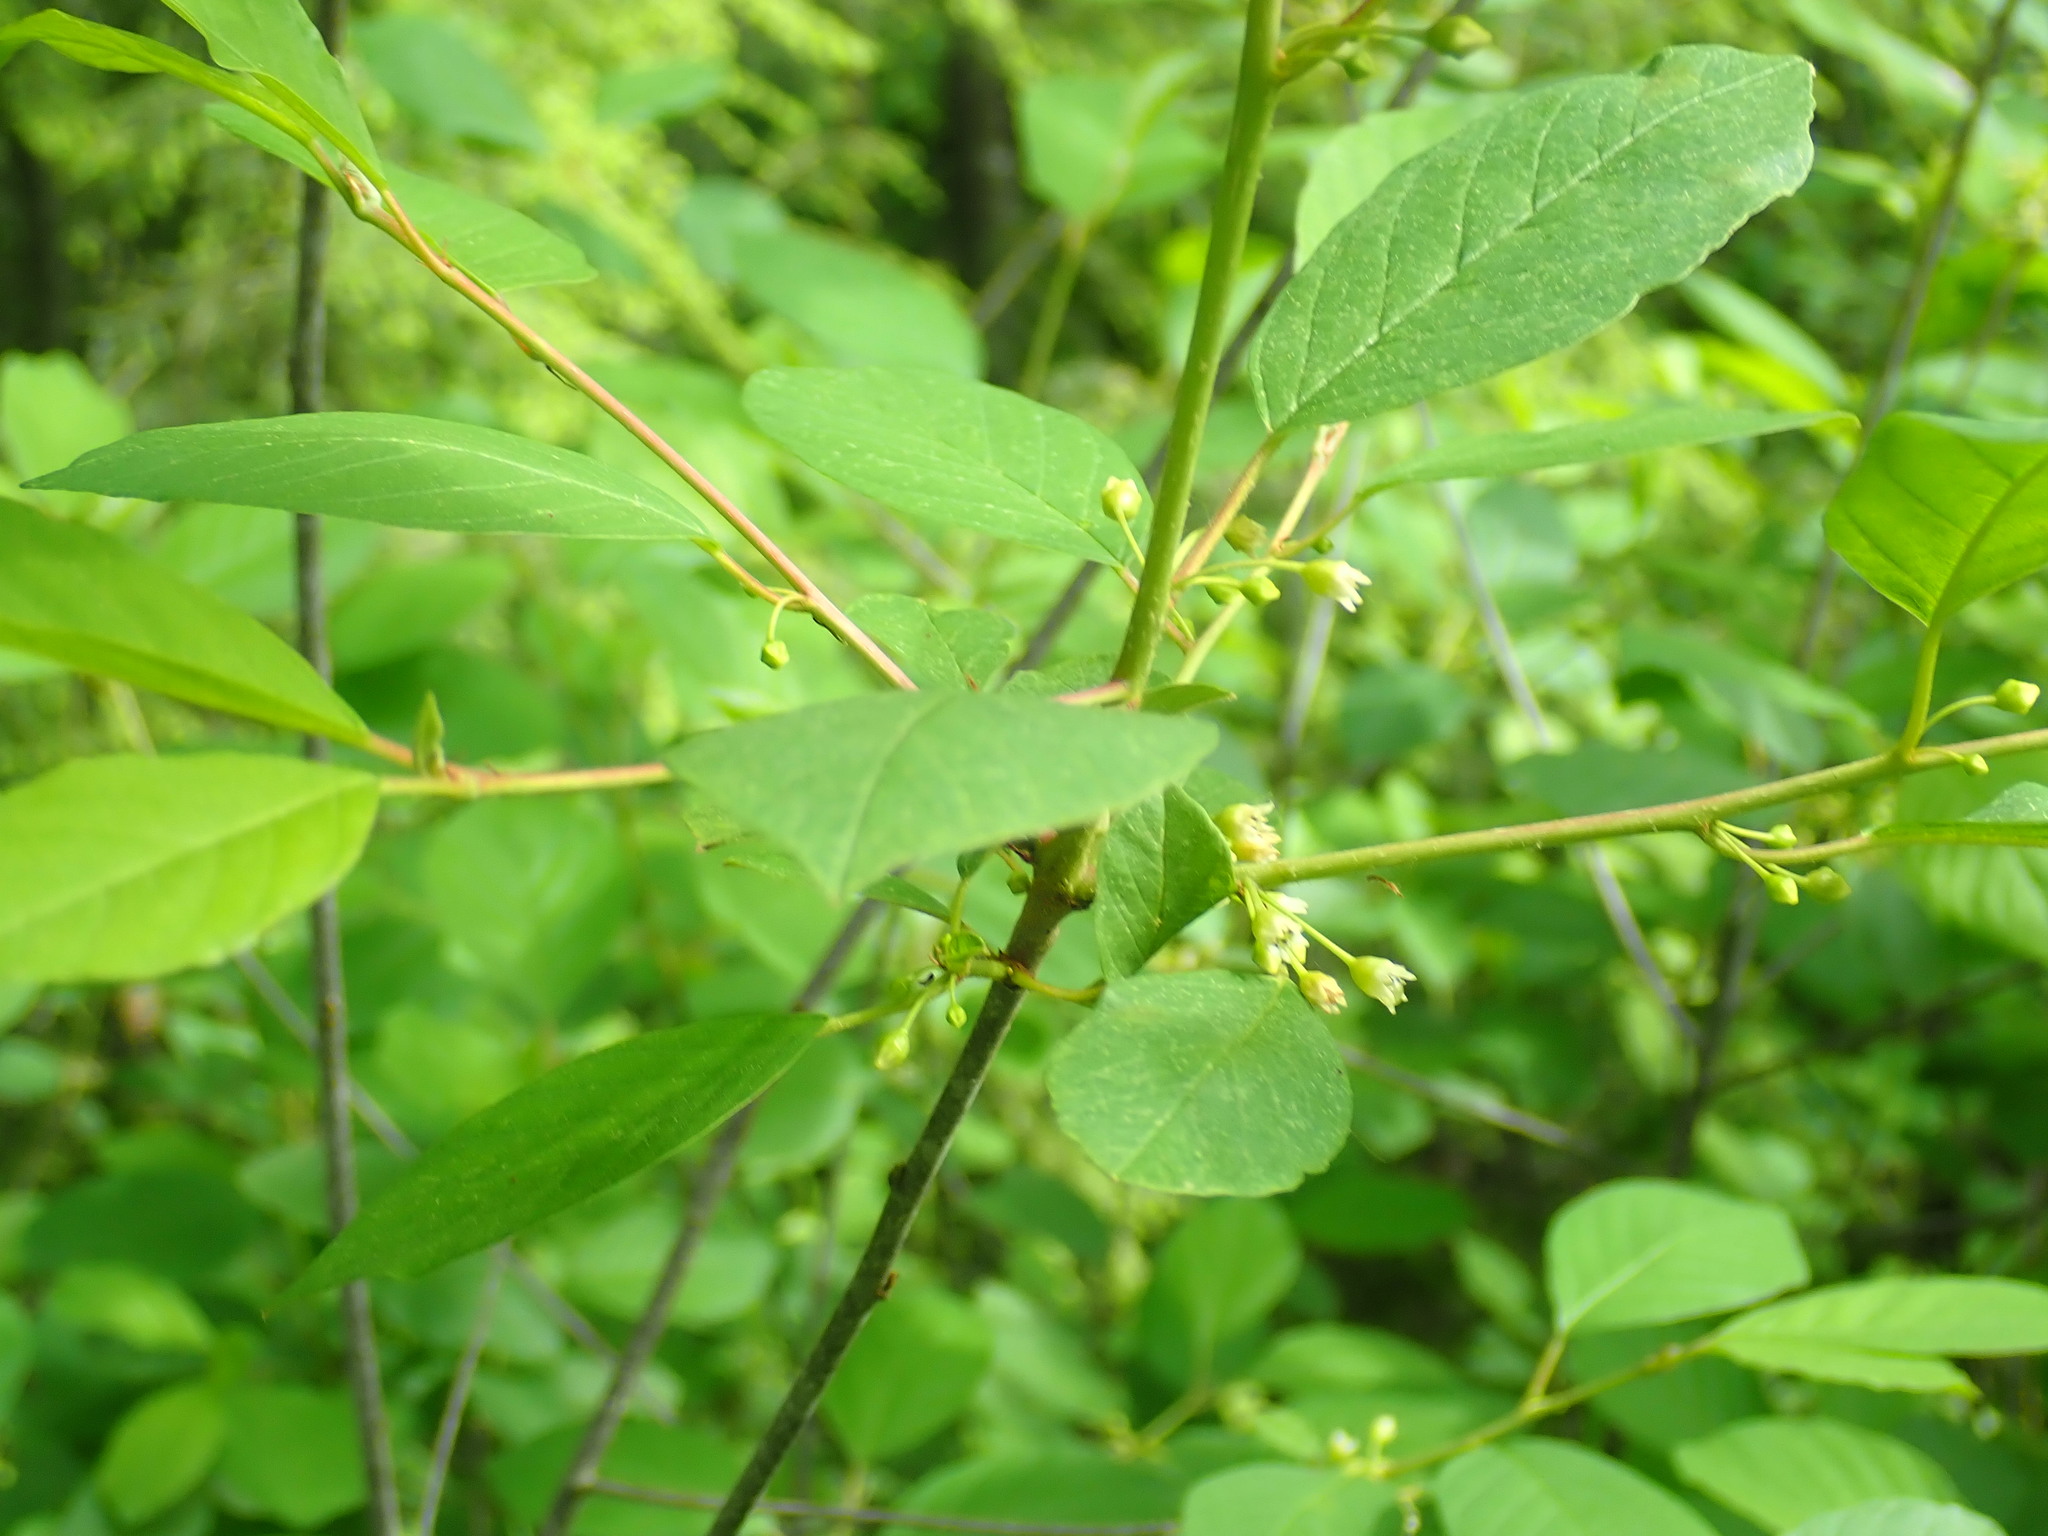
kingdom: Plantae
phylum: Tracheophyta
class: Magnoliopsida
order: Rosales
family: Rhamnaceae
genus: Frangula
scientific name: Frangula alnus
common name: Alder buckthorn
